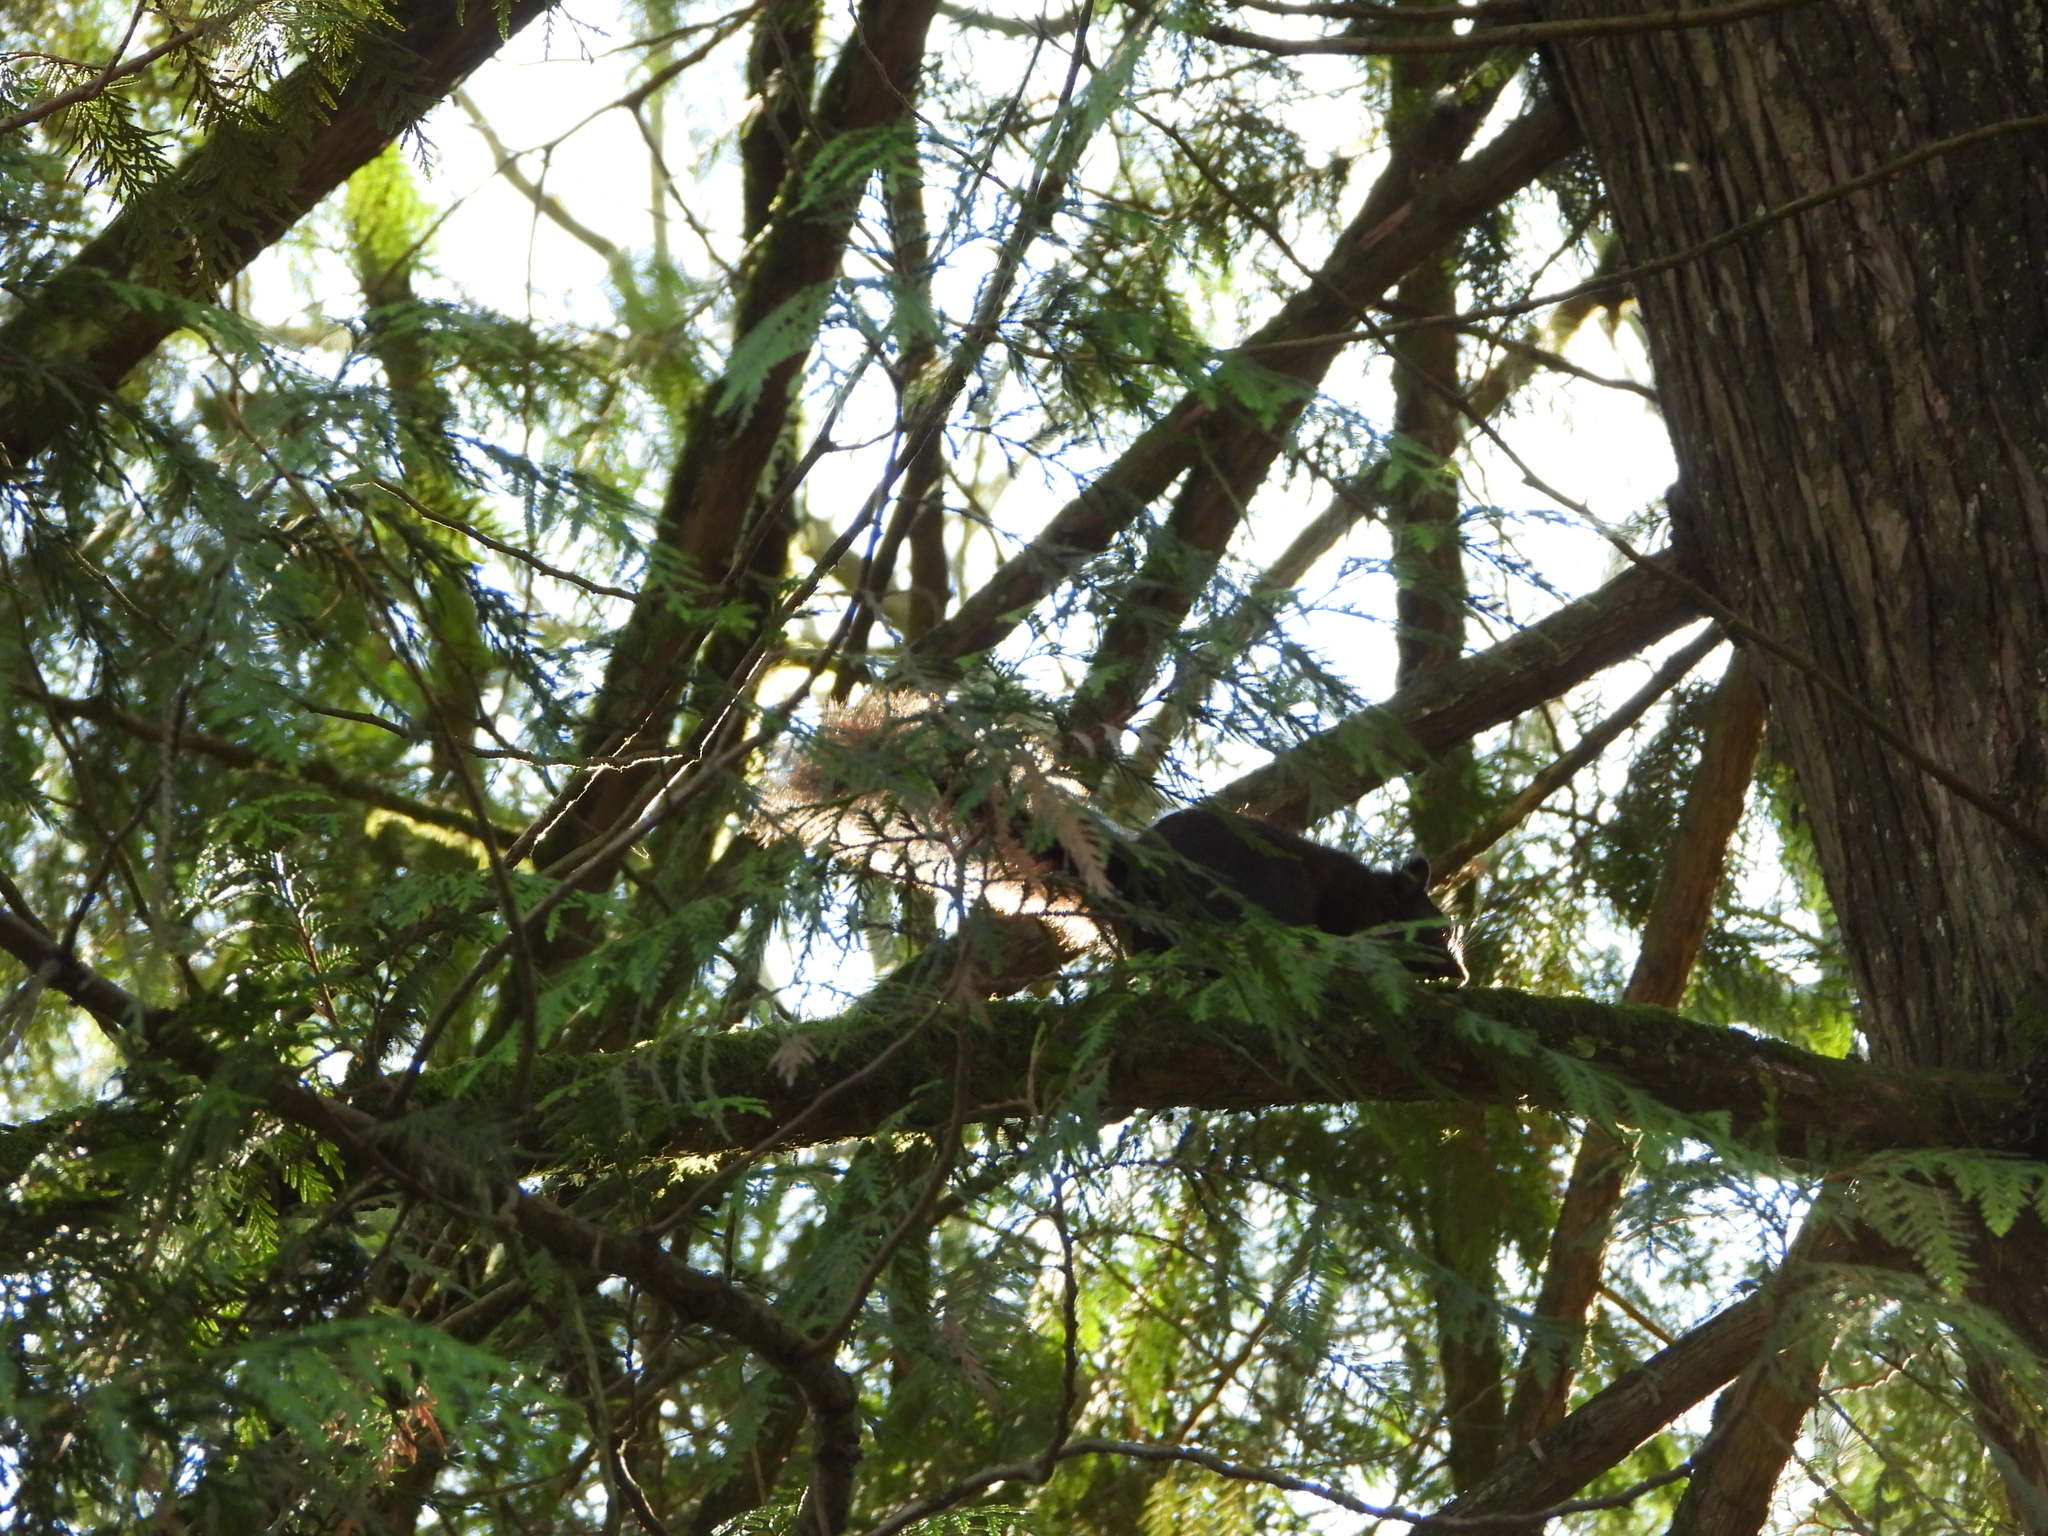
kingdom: Animalia
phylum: Chordata
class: Mammalia
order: Rodentia
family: Sciuridae
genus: Sciurus
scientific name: Sciurus carolinensis
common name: Eastern gray squirrel
